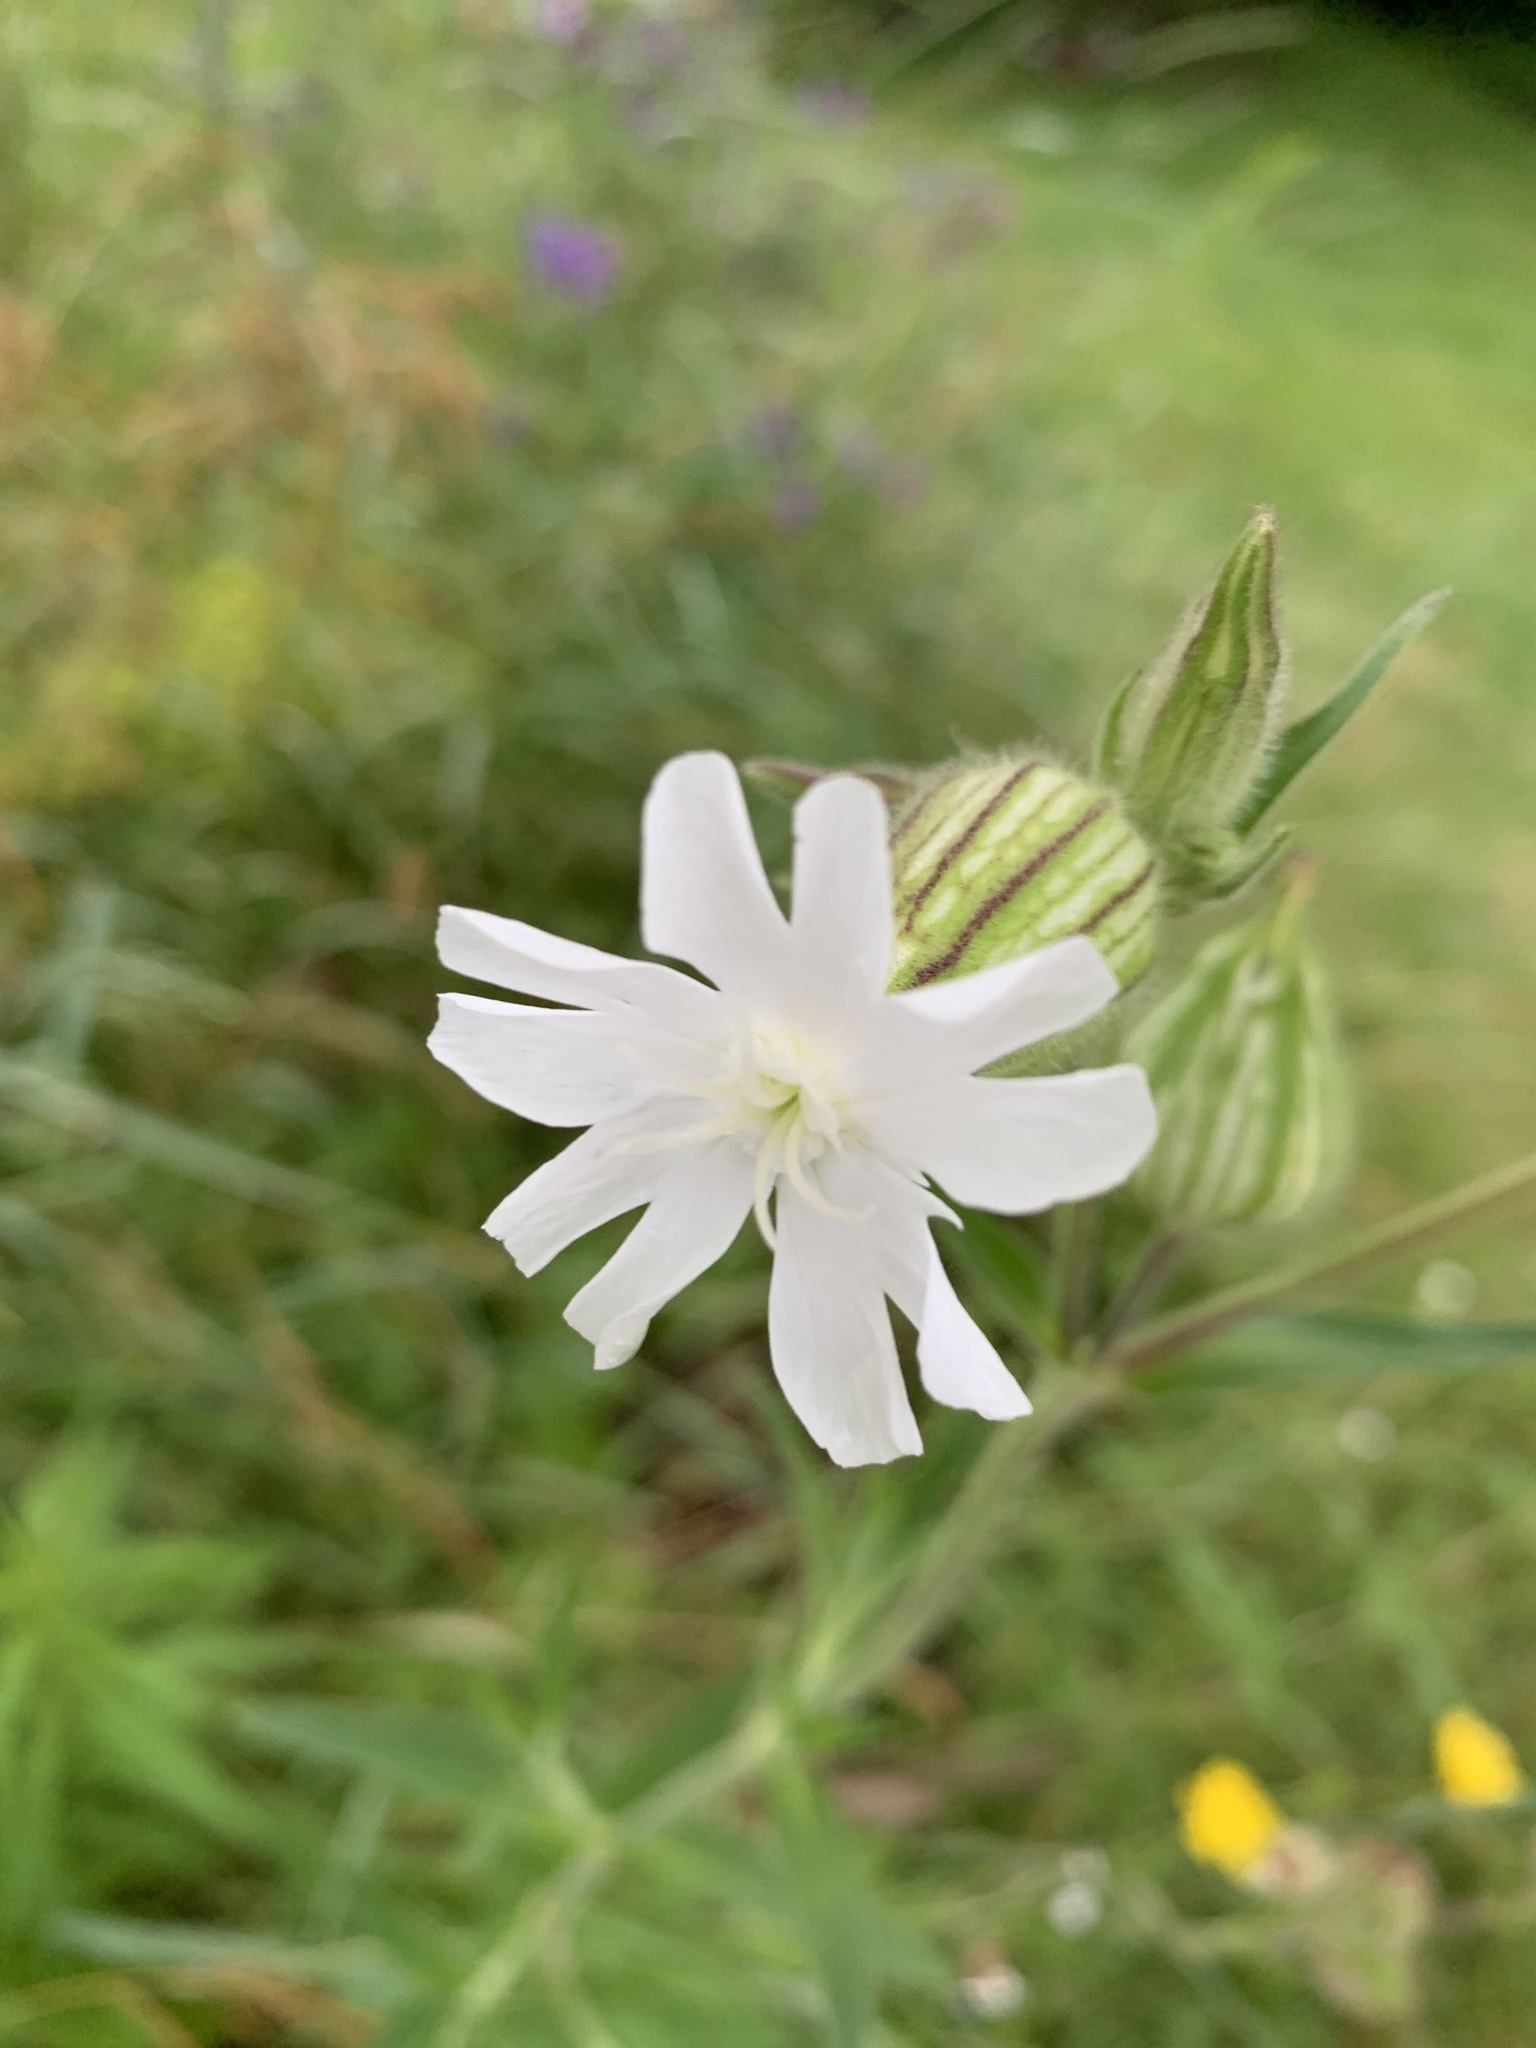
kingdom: Plantae
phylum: Tracheophyta
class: Magnoliopsida
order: Caryophyllales
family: Caryophyllaceae
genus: Silene
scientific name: Silene latifolia
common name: White campion
